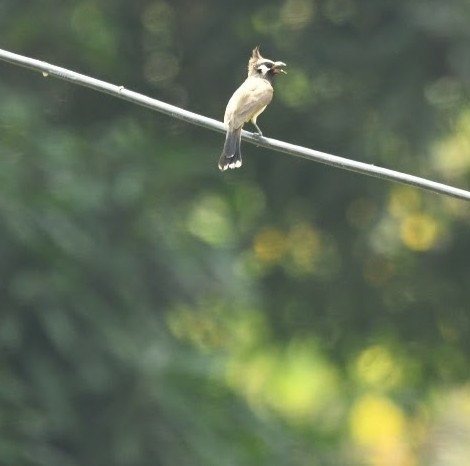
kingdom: Animalia
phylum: Chordata
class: Aves
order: Passeriformes
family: Pycnonotidae
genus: Pycnonotus
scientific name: Pycnonotus leucogenys
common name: Himalayan bulbul
